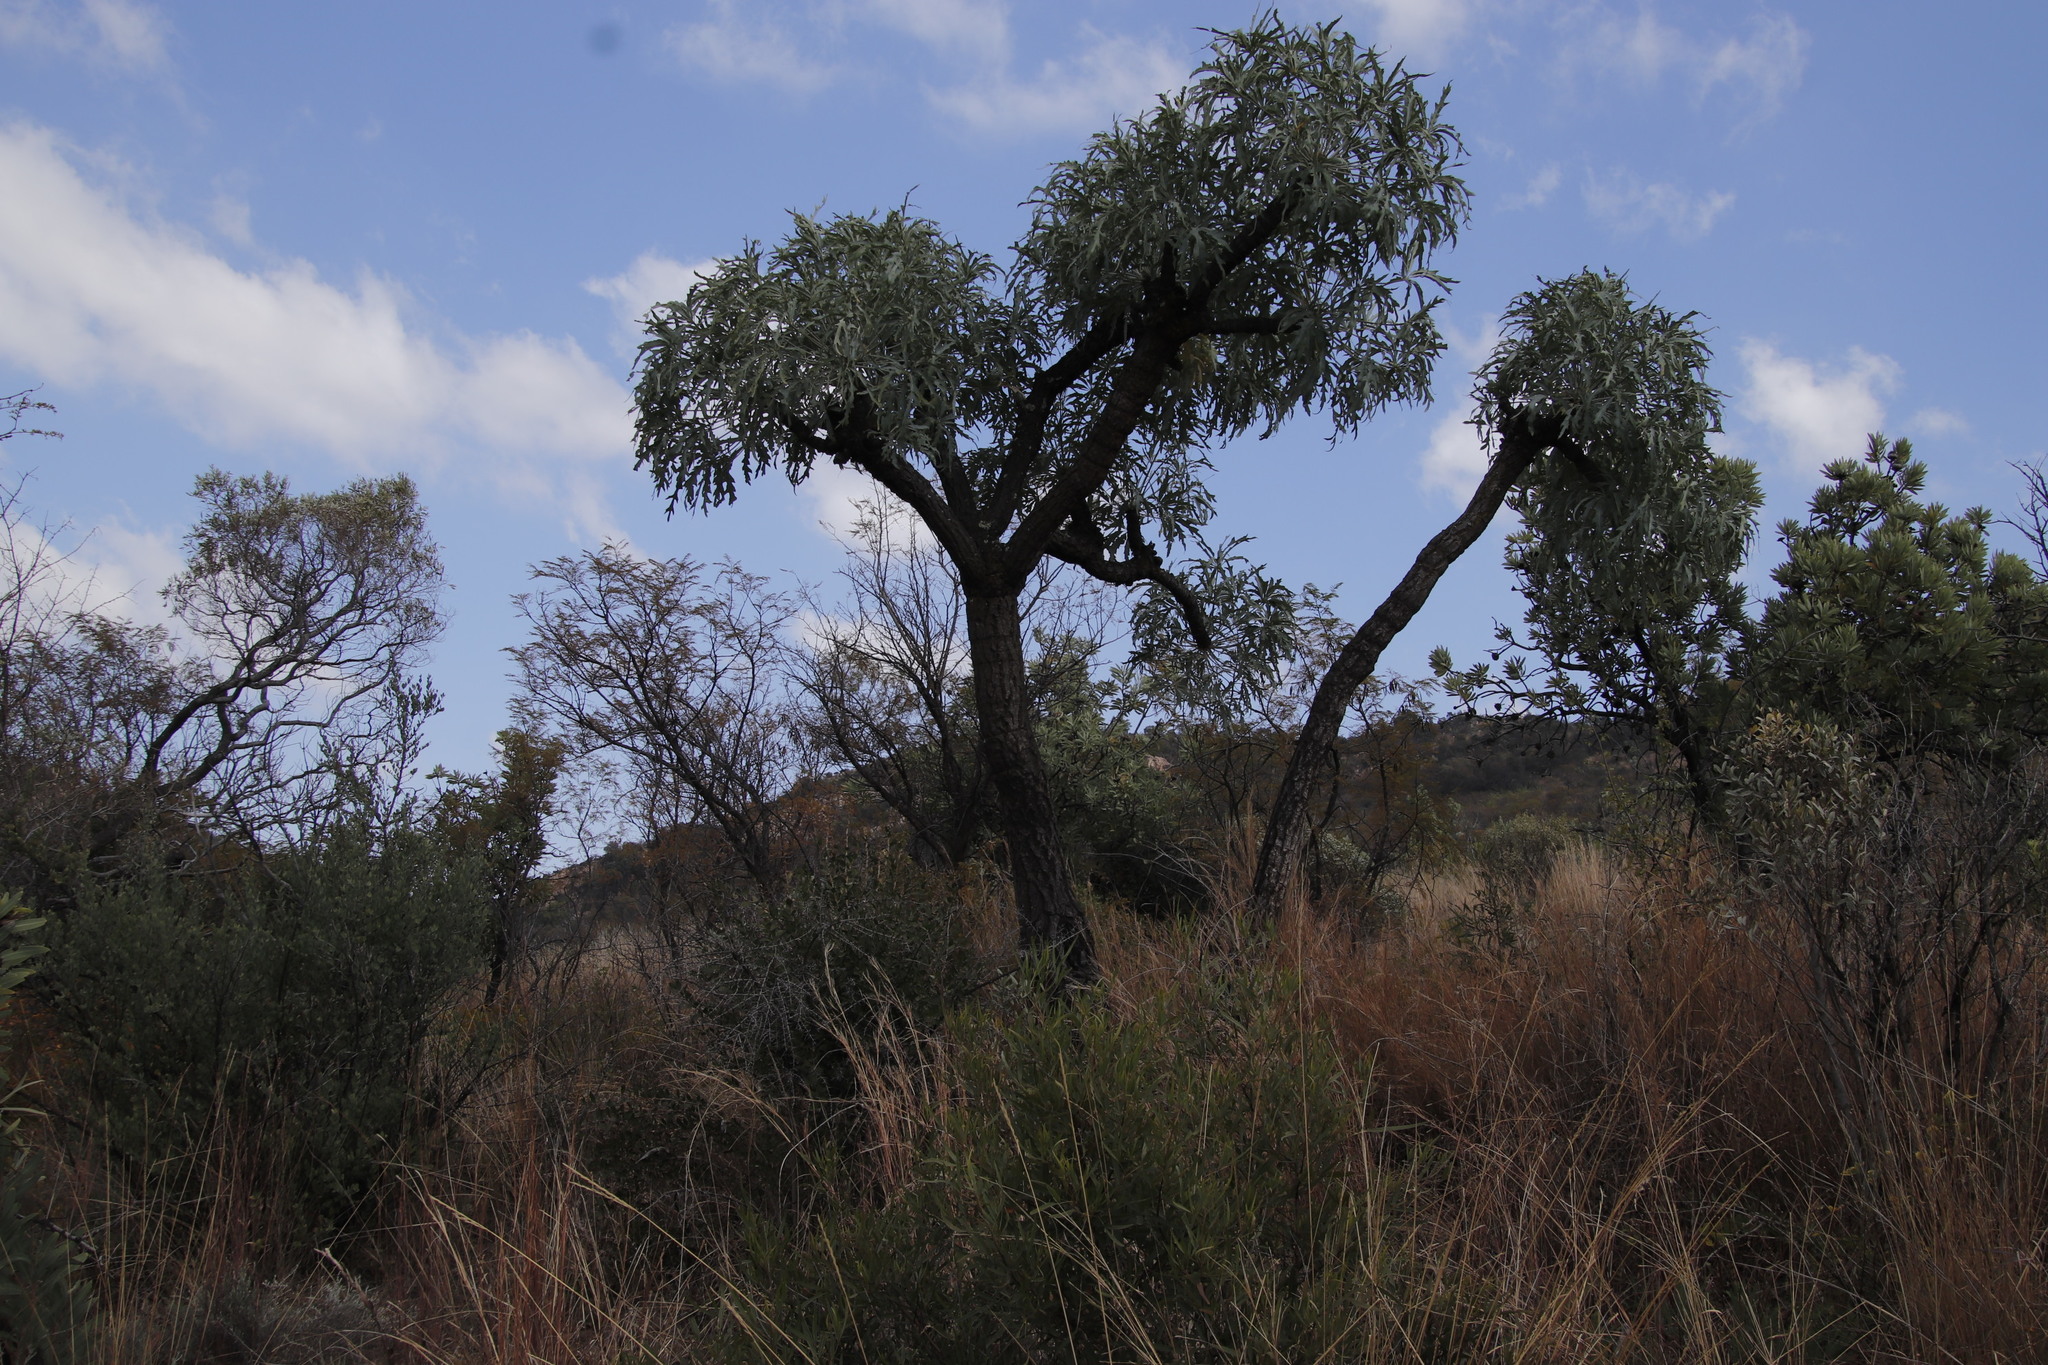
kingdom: Plantae
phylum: Tracheophyta
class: Magnoliopsida
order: Apiales
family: Araliaceae
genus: Cussonia
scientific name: Cussonia paniculata
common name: Cabbagetree
